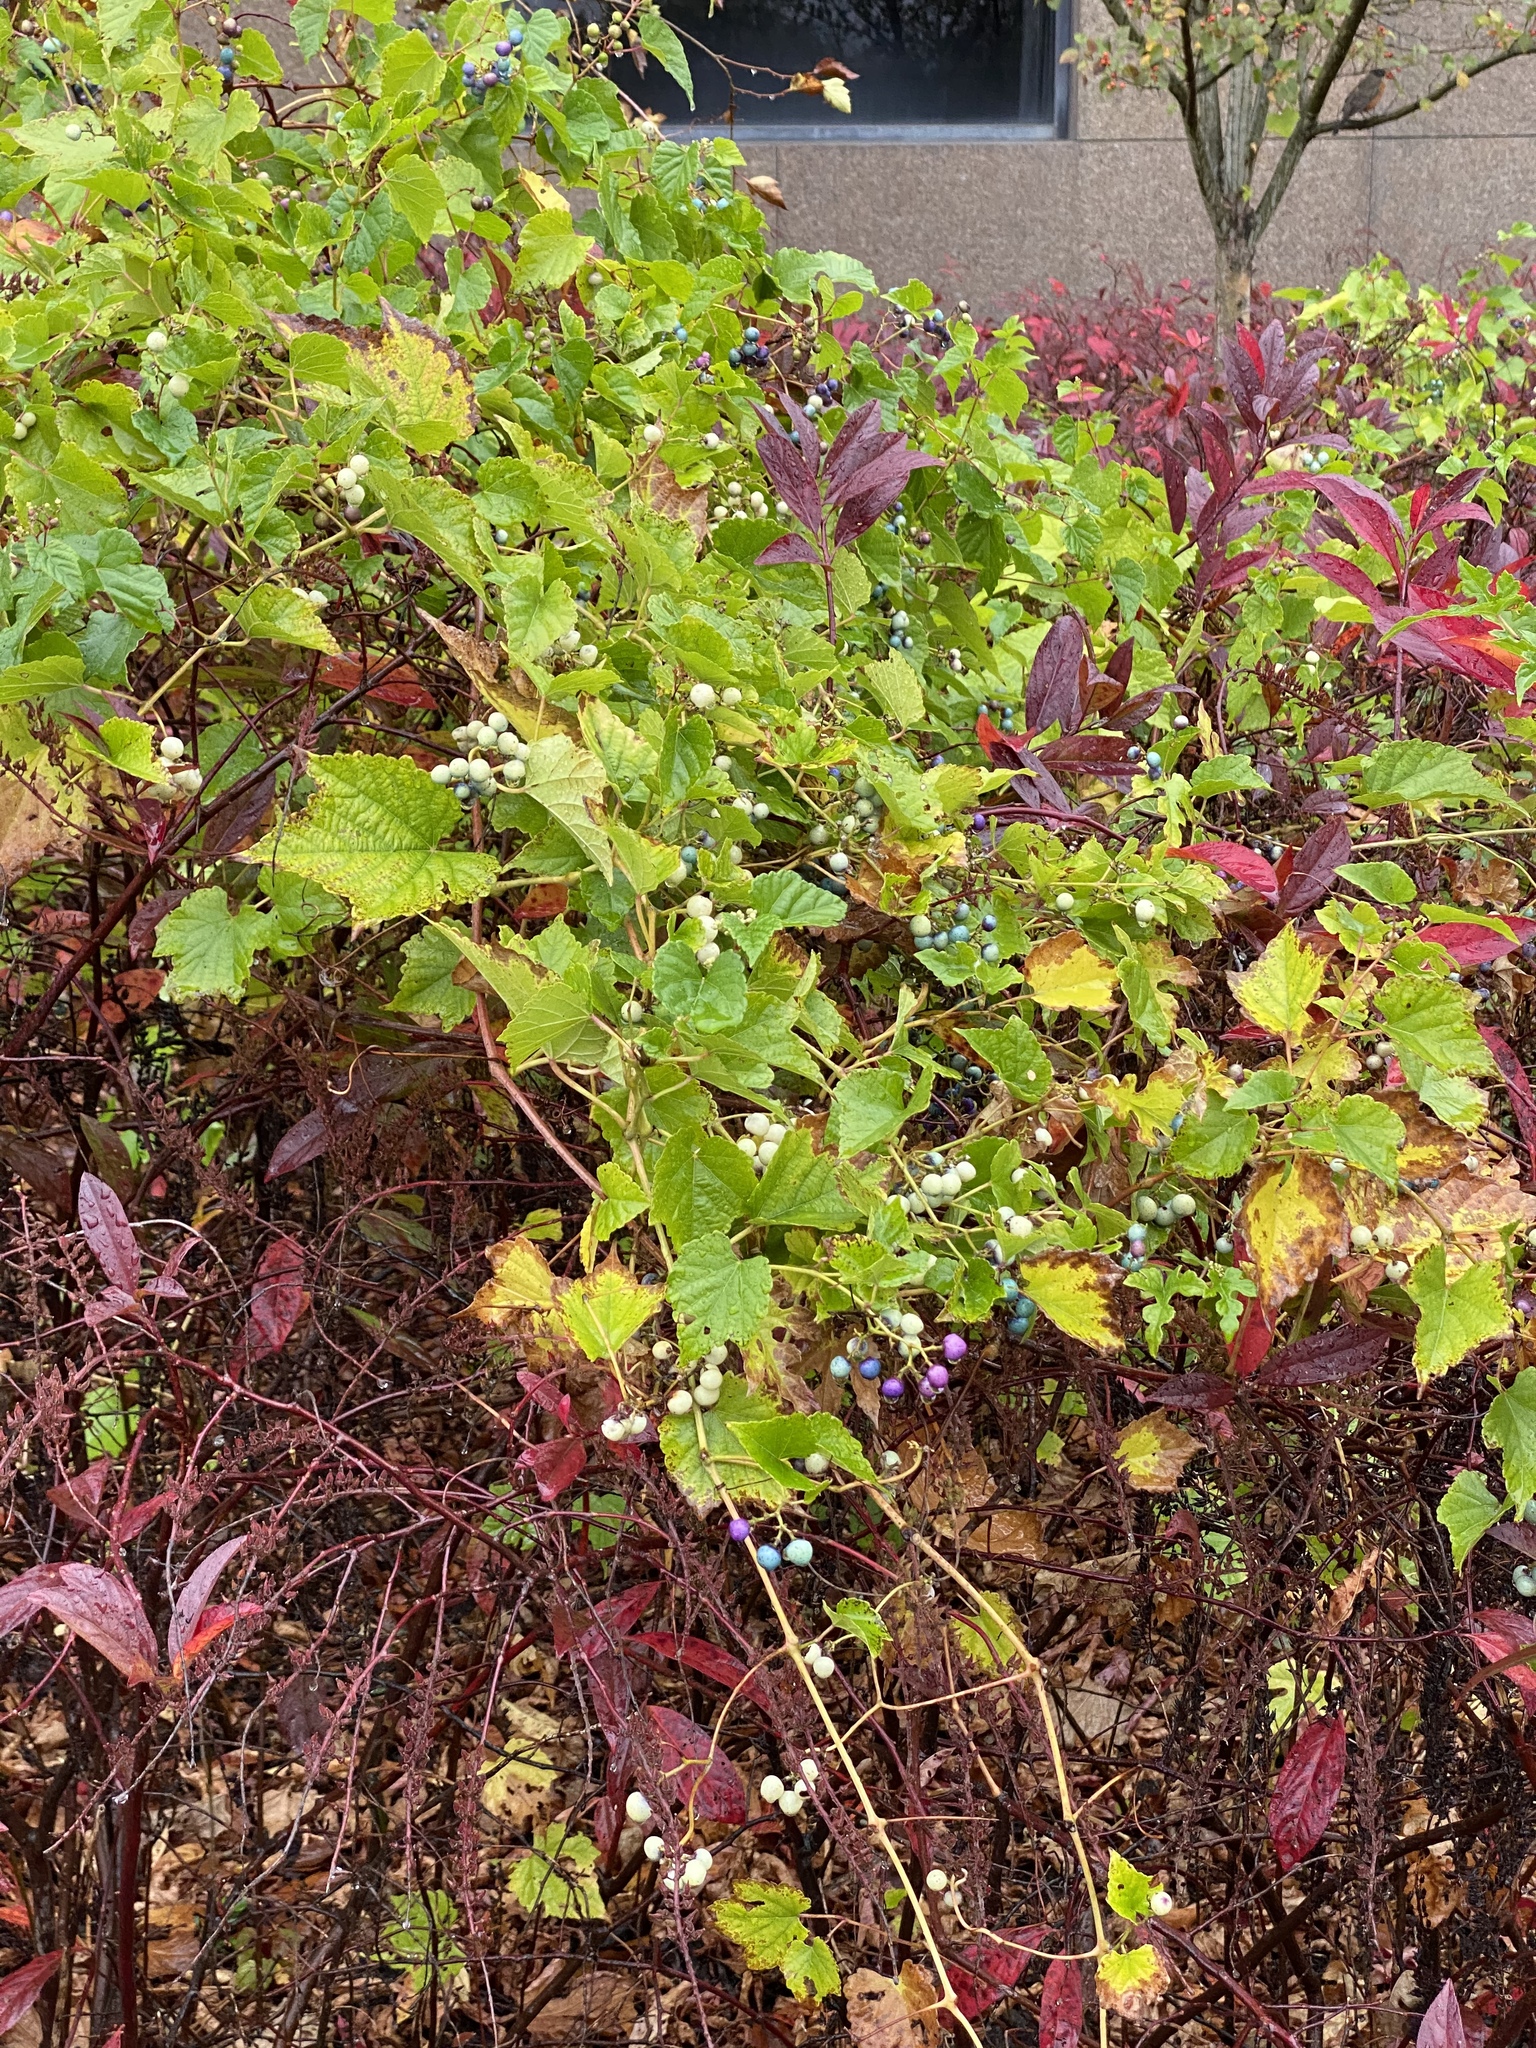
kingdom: Plantae
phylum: Tracheophyta
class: Magnoliopsida
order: Vitales
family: Vitaceae
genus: Ampelopsis
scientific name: Ampelopsis glandulosa
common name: Amur peppervine
